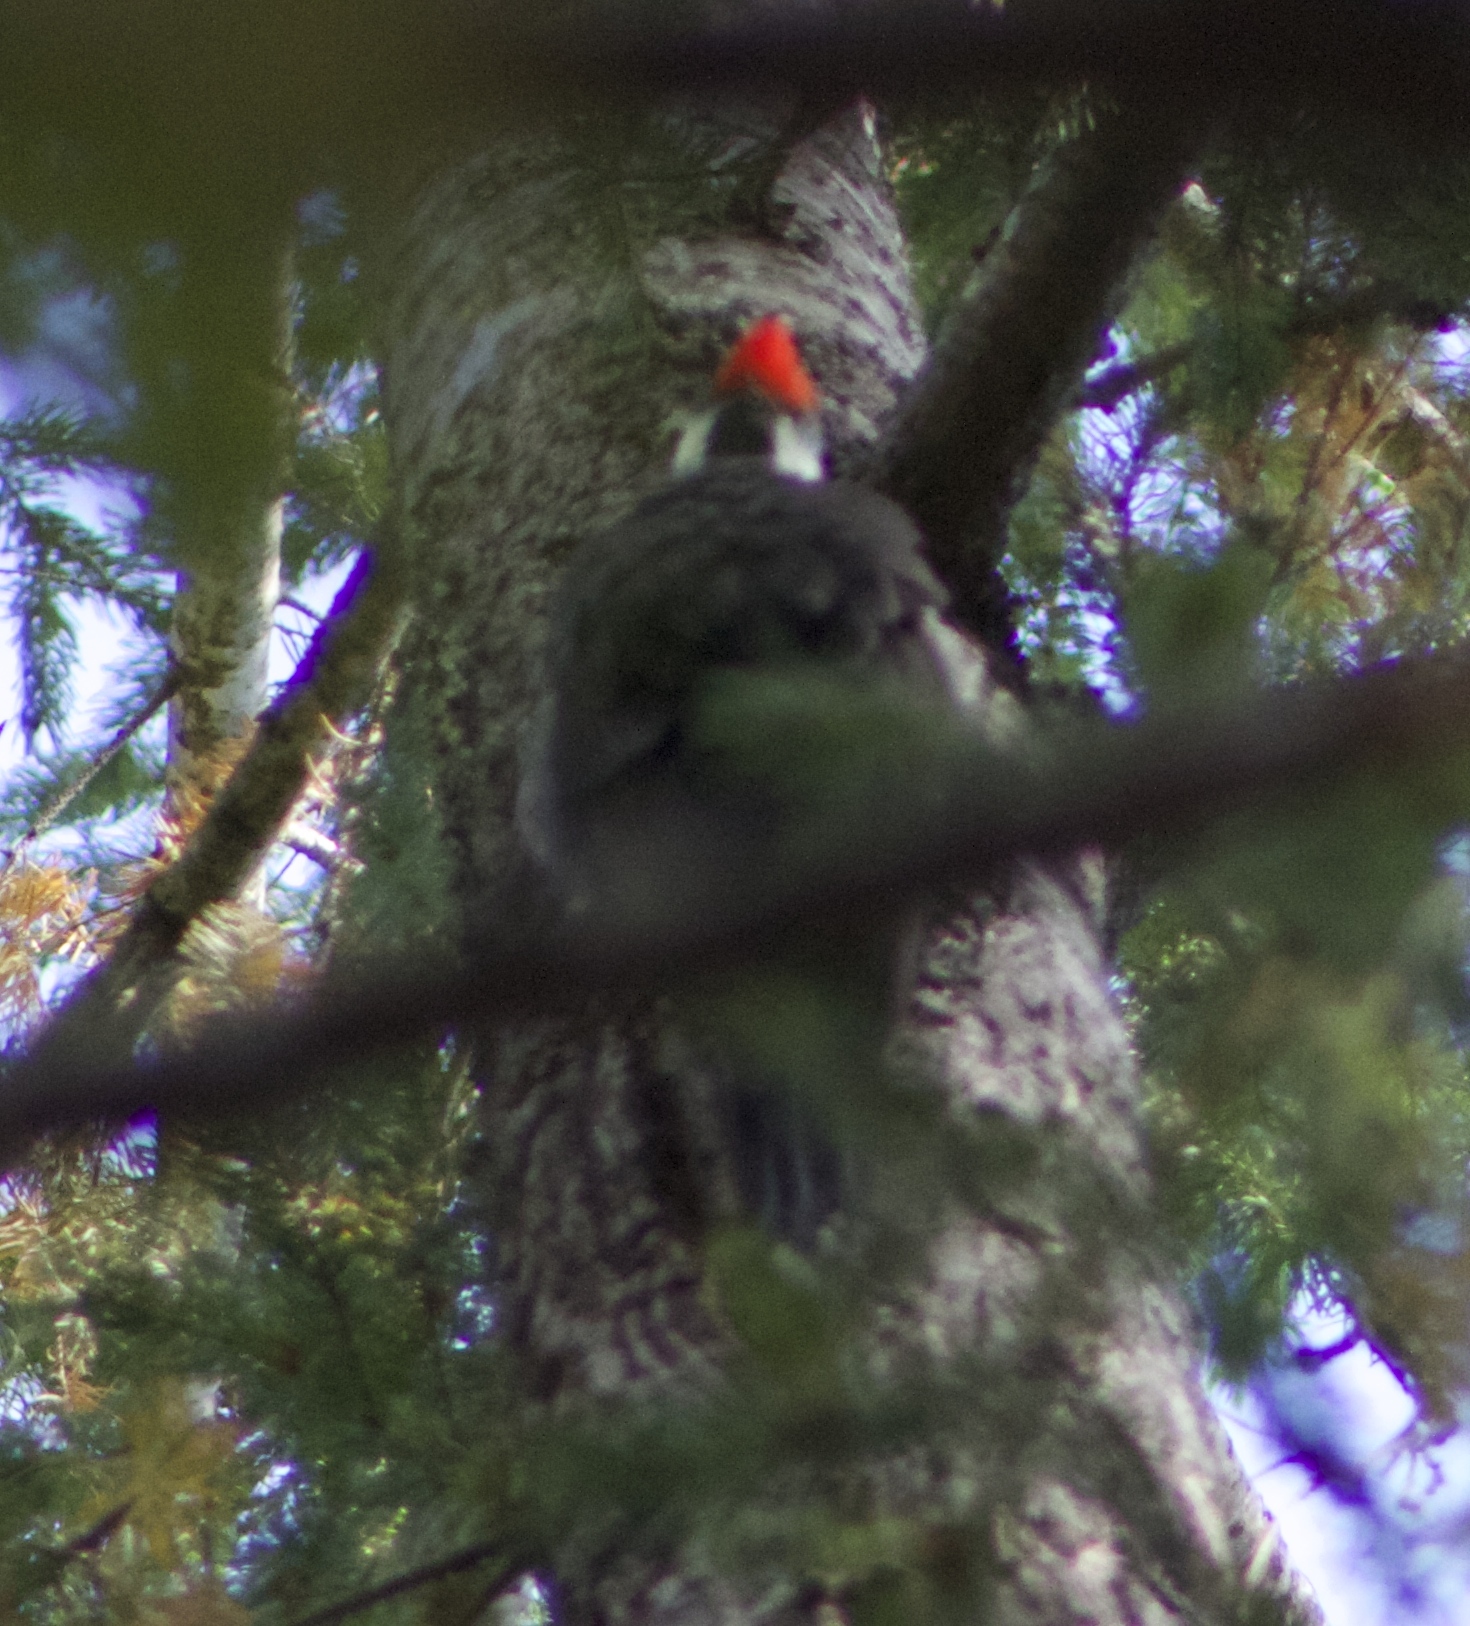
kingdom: Animalia
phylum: Chordata
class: Aves
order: Piciformes
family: Picidae
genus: Dryocopus
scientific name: Dryocopus pileatus
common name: Pileated woodpecker
